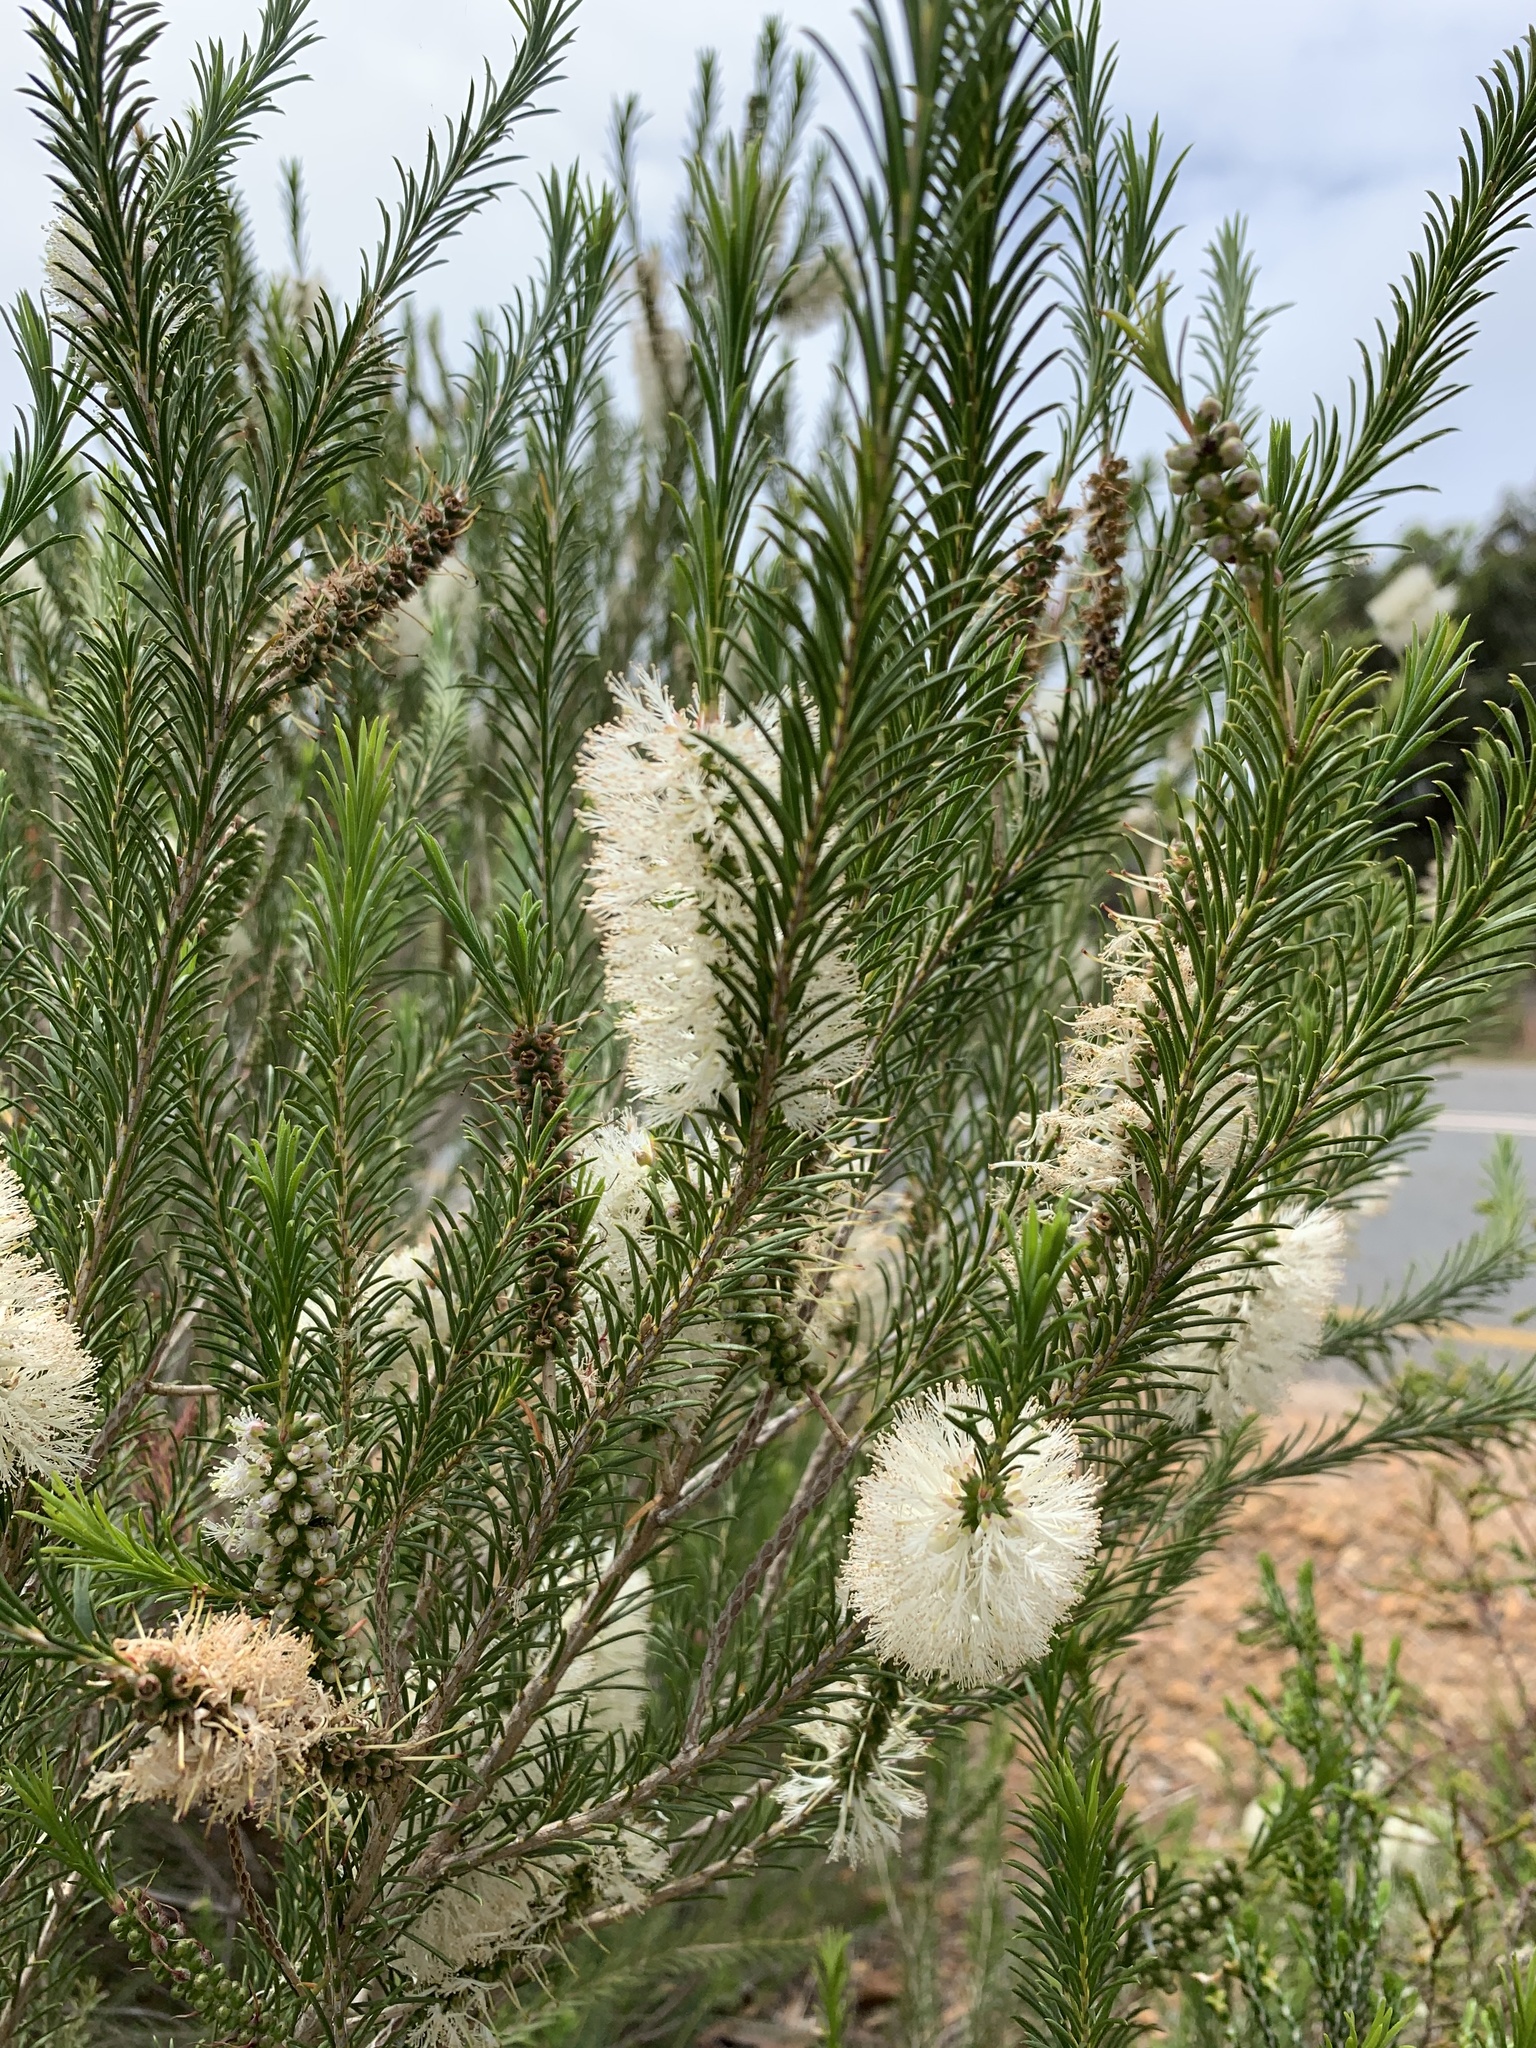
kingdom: Plantae
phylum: Tracheophyta
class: Magnoliopsida
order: Myrtales
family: Myrtaceae
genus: Melaleuca
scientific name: Melaleuca armillaris
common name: Bracelet honey myrtle
